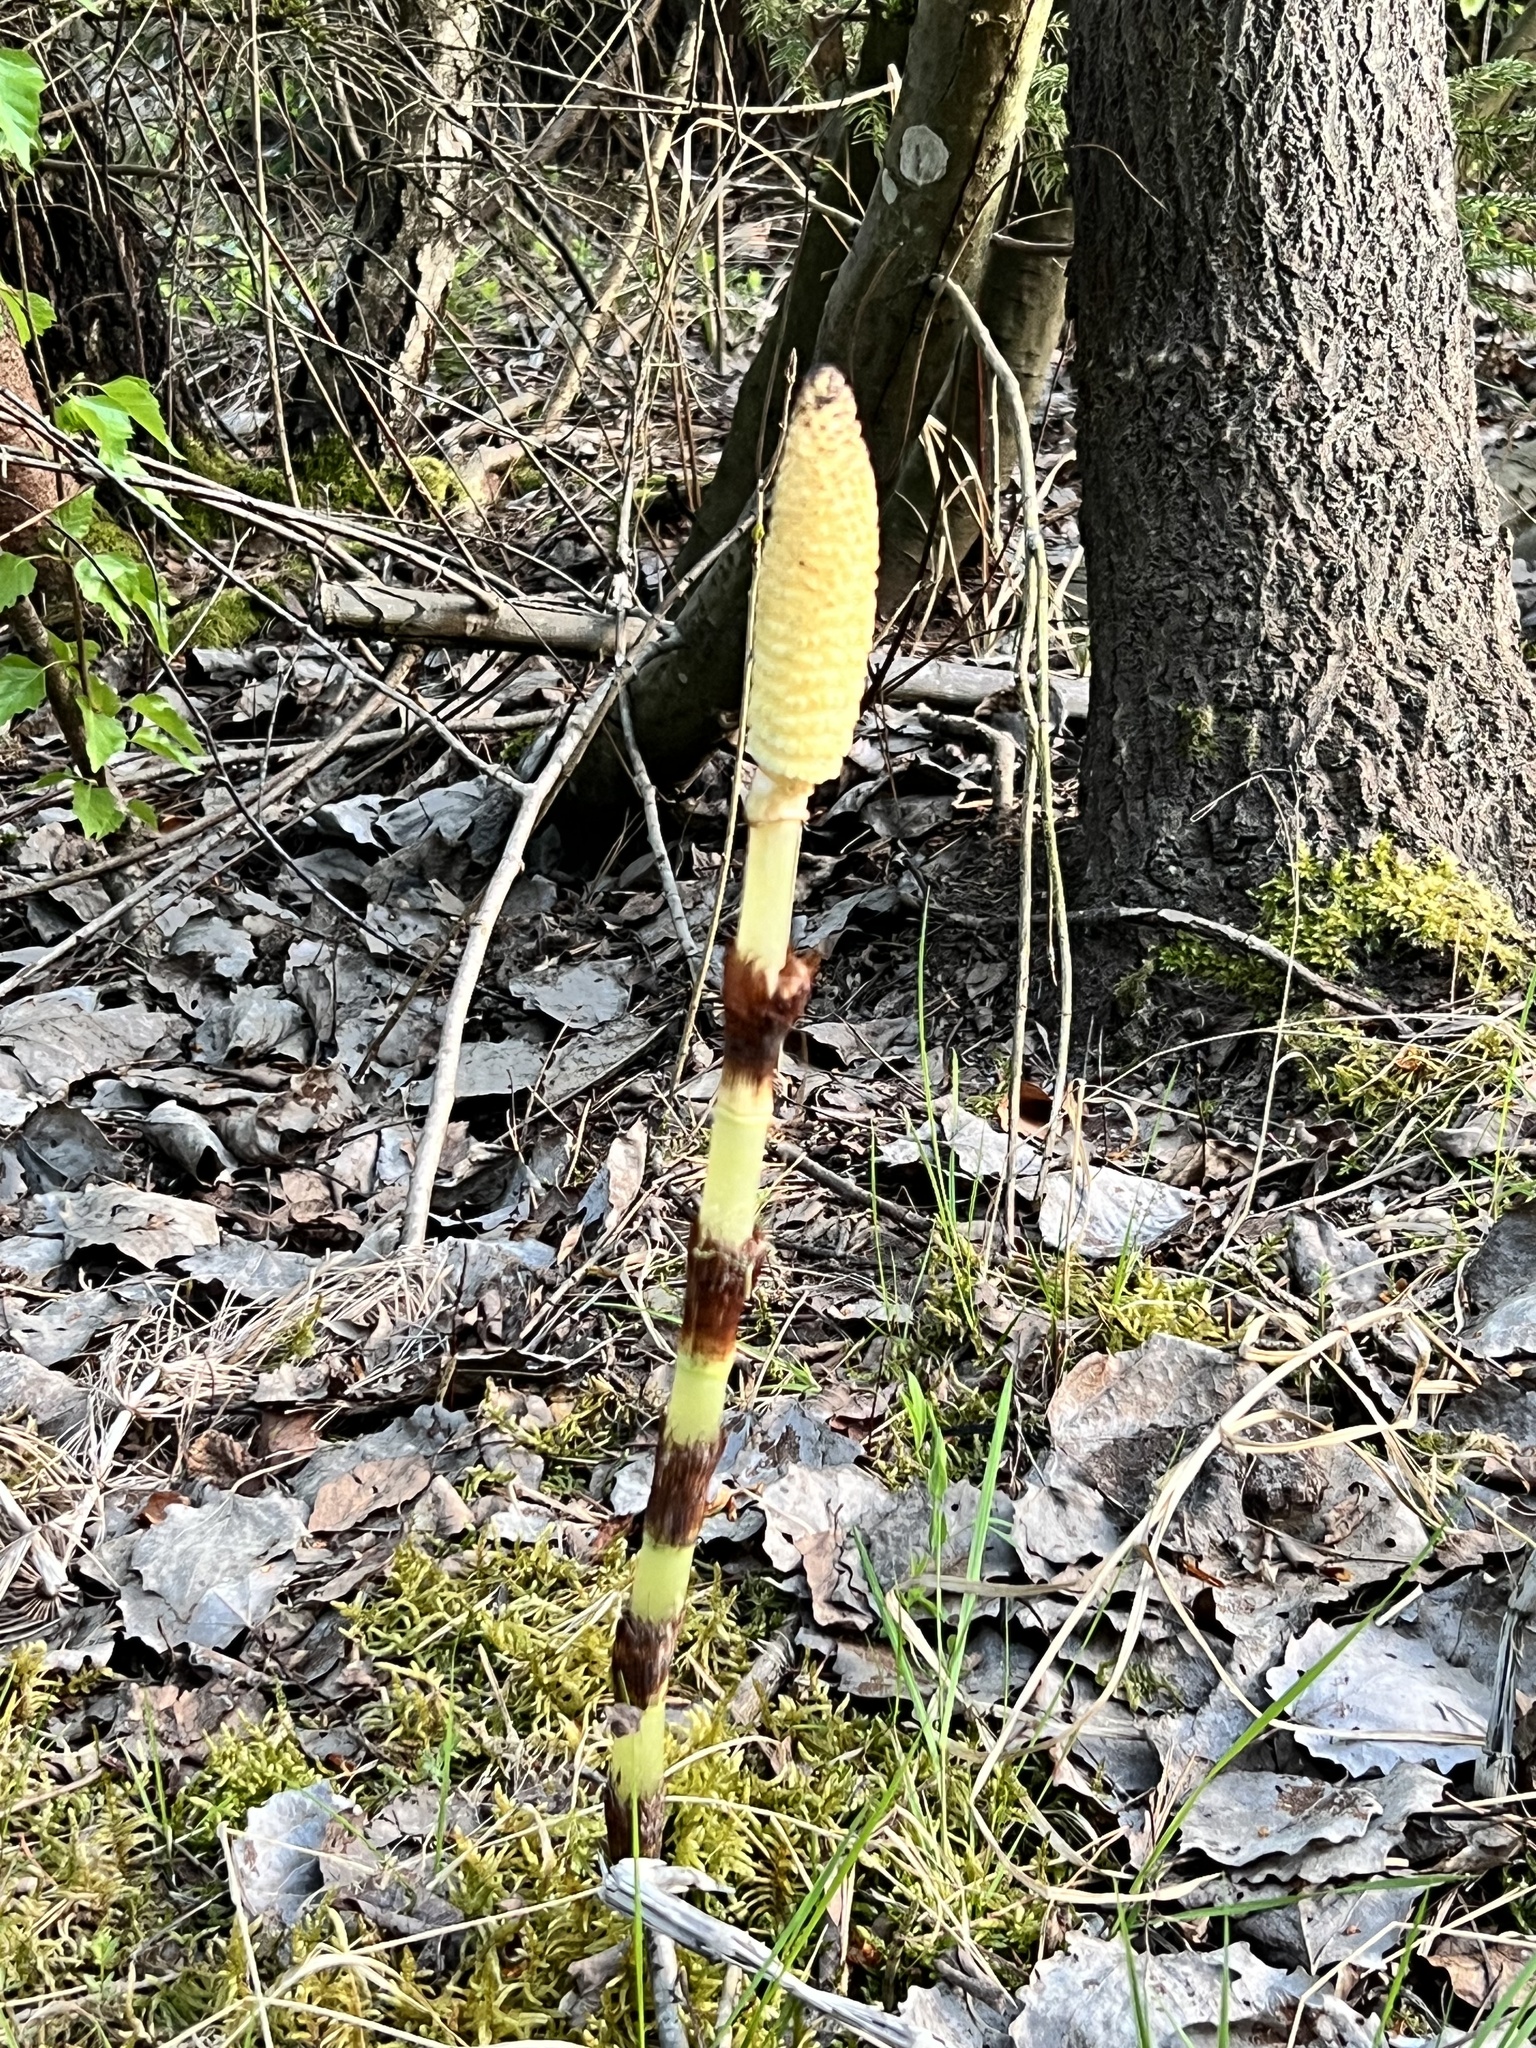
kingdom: Plantae
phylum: Tracheophyta
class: Polypodiopsida
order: Equisetales
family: Equisetaceae
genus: Equisetum
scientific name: Equisetum telmateia
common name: Great horsetail
